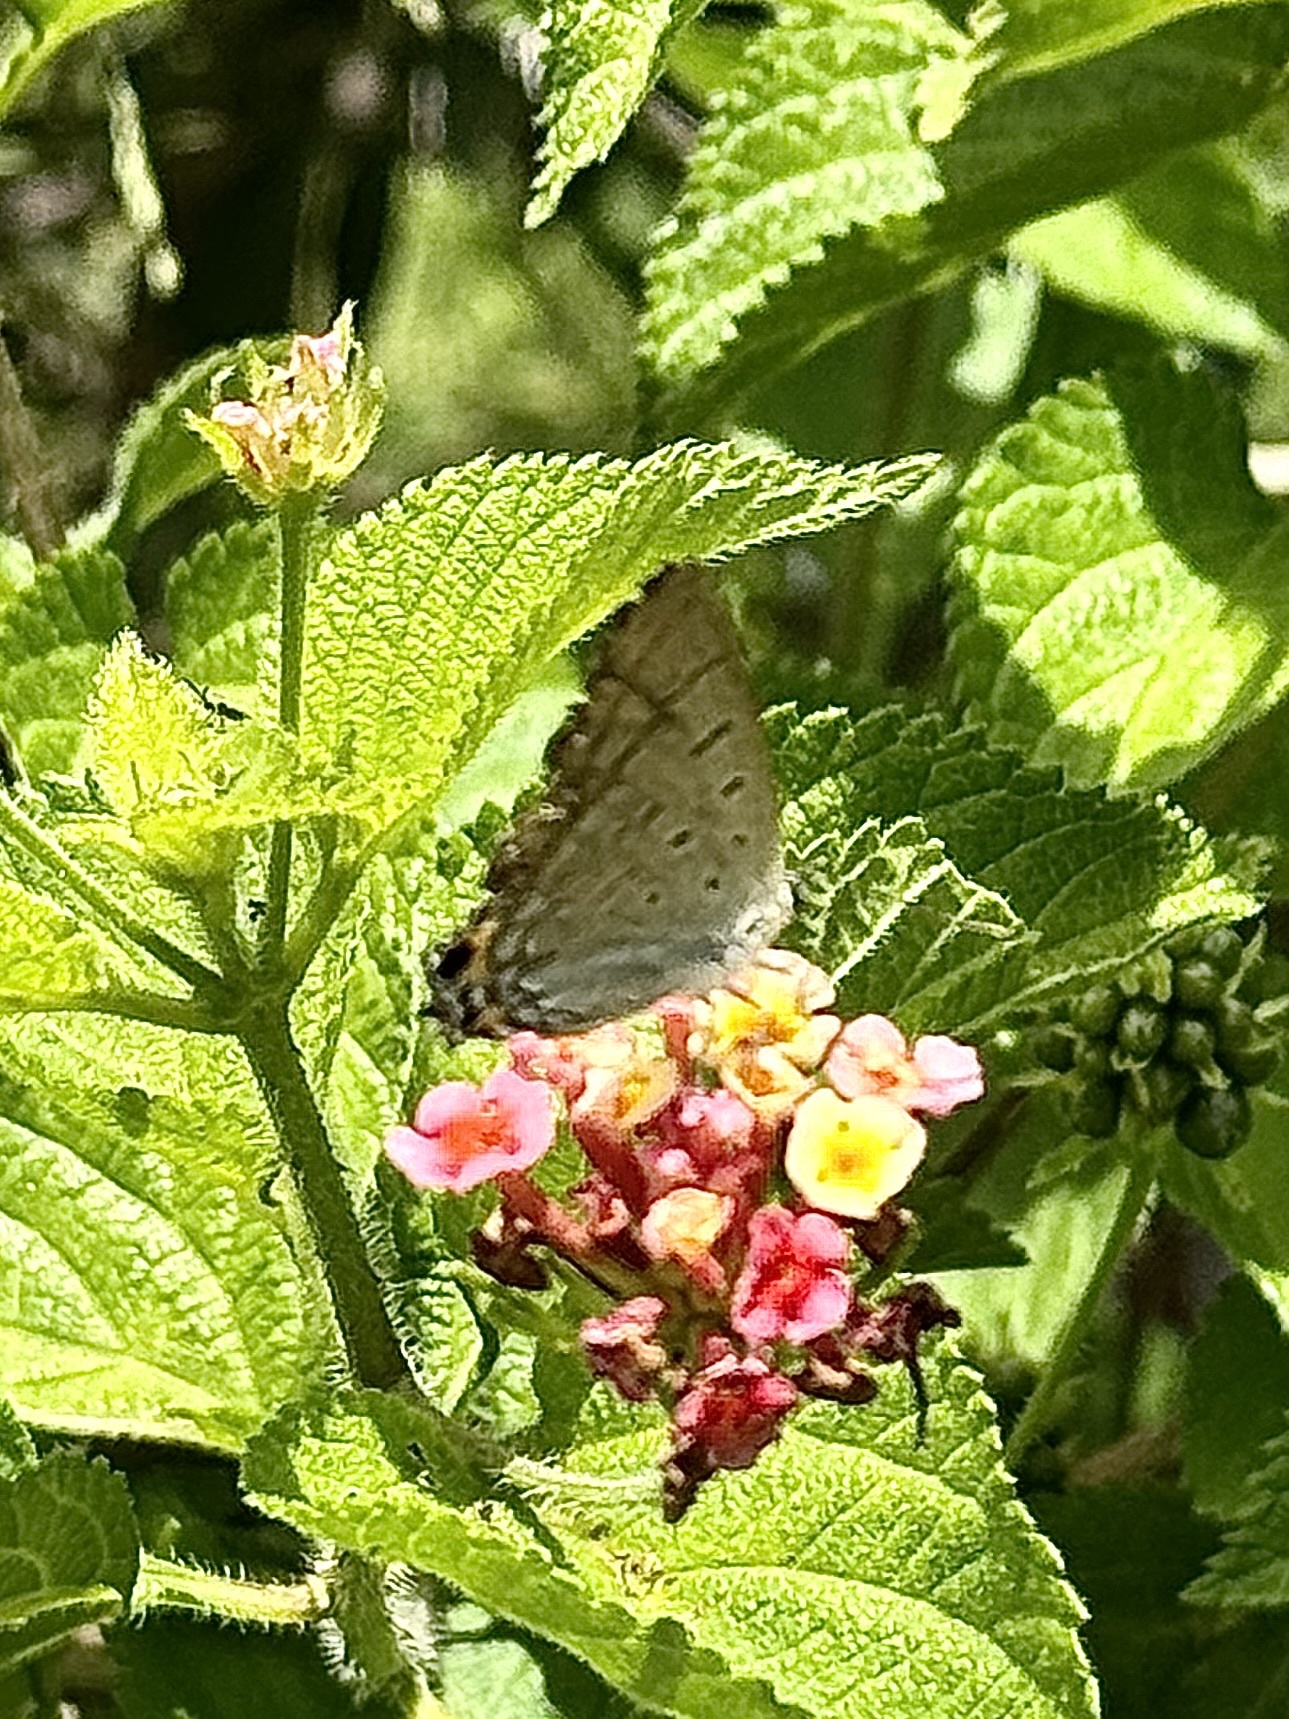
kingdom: Animalia
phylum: Arthropoda
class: Insecta
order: Lepidoptera
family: Lycaenidae
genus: Jalmenus
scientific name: Jalmenus ictinus
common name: Stencilled hairstreak
